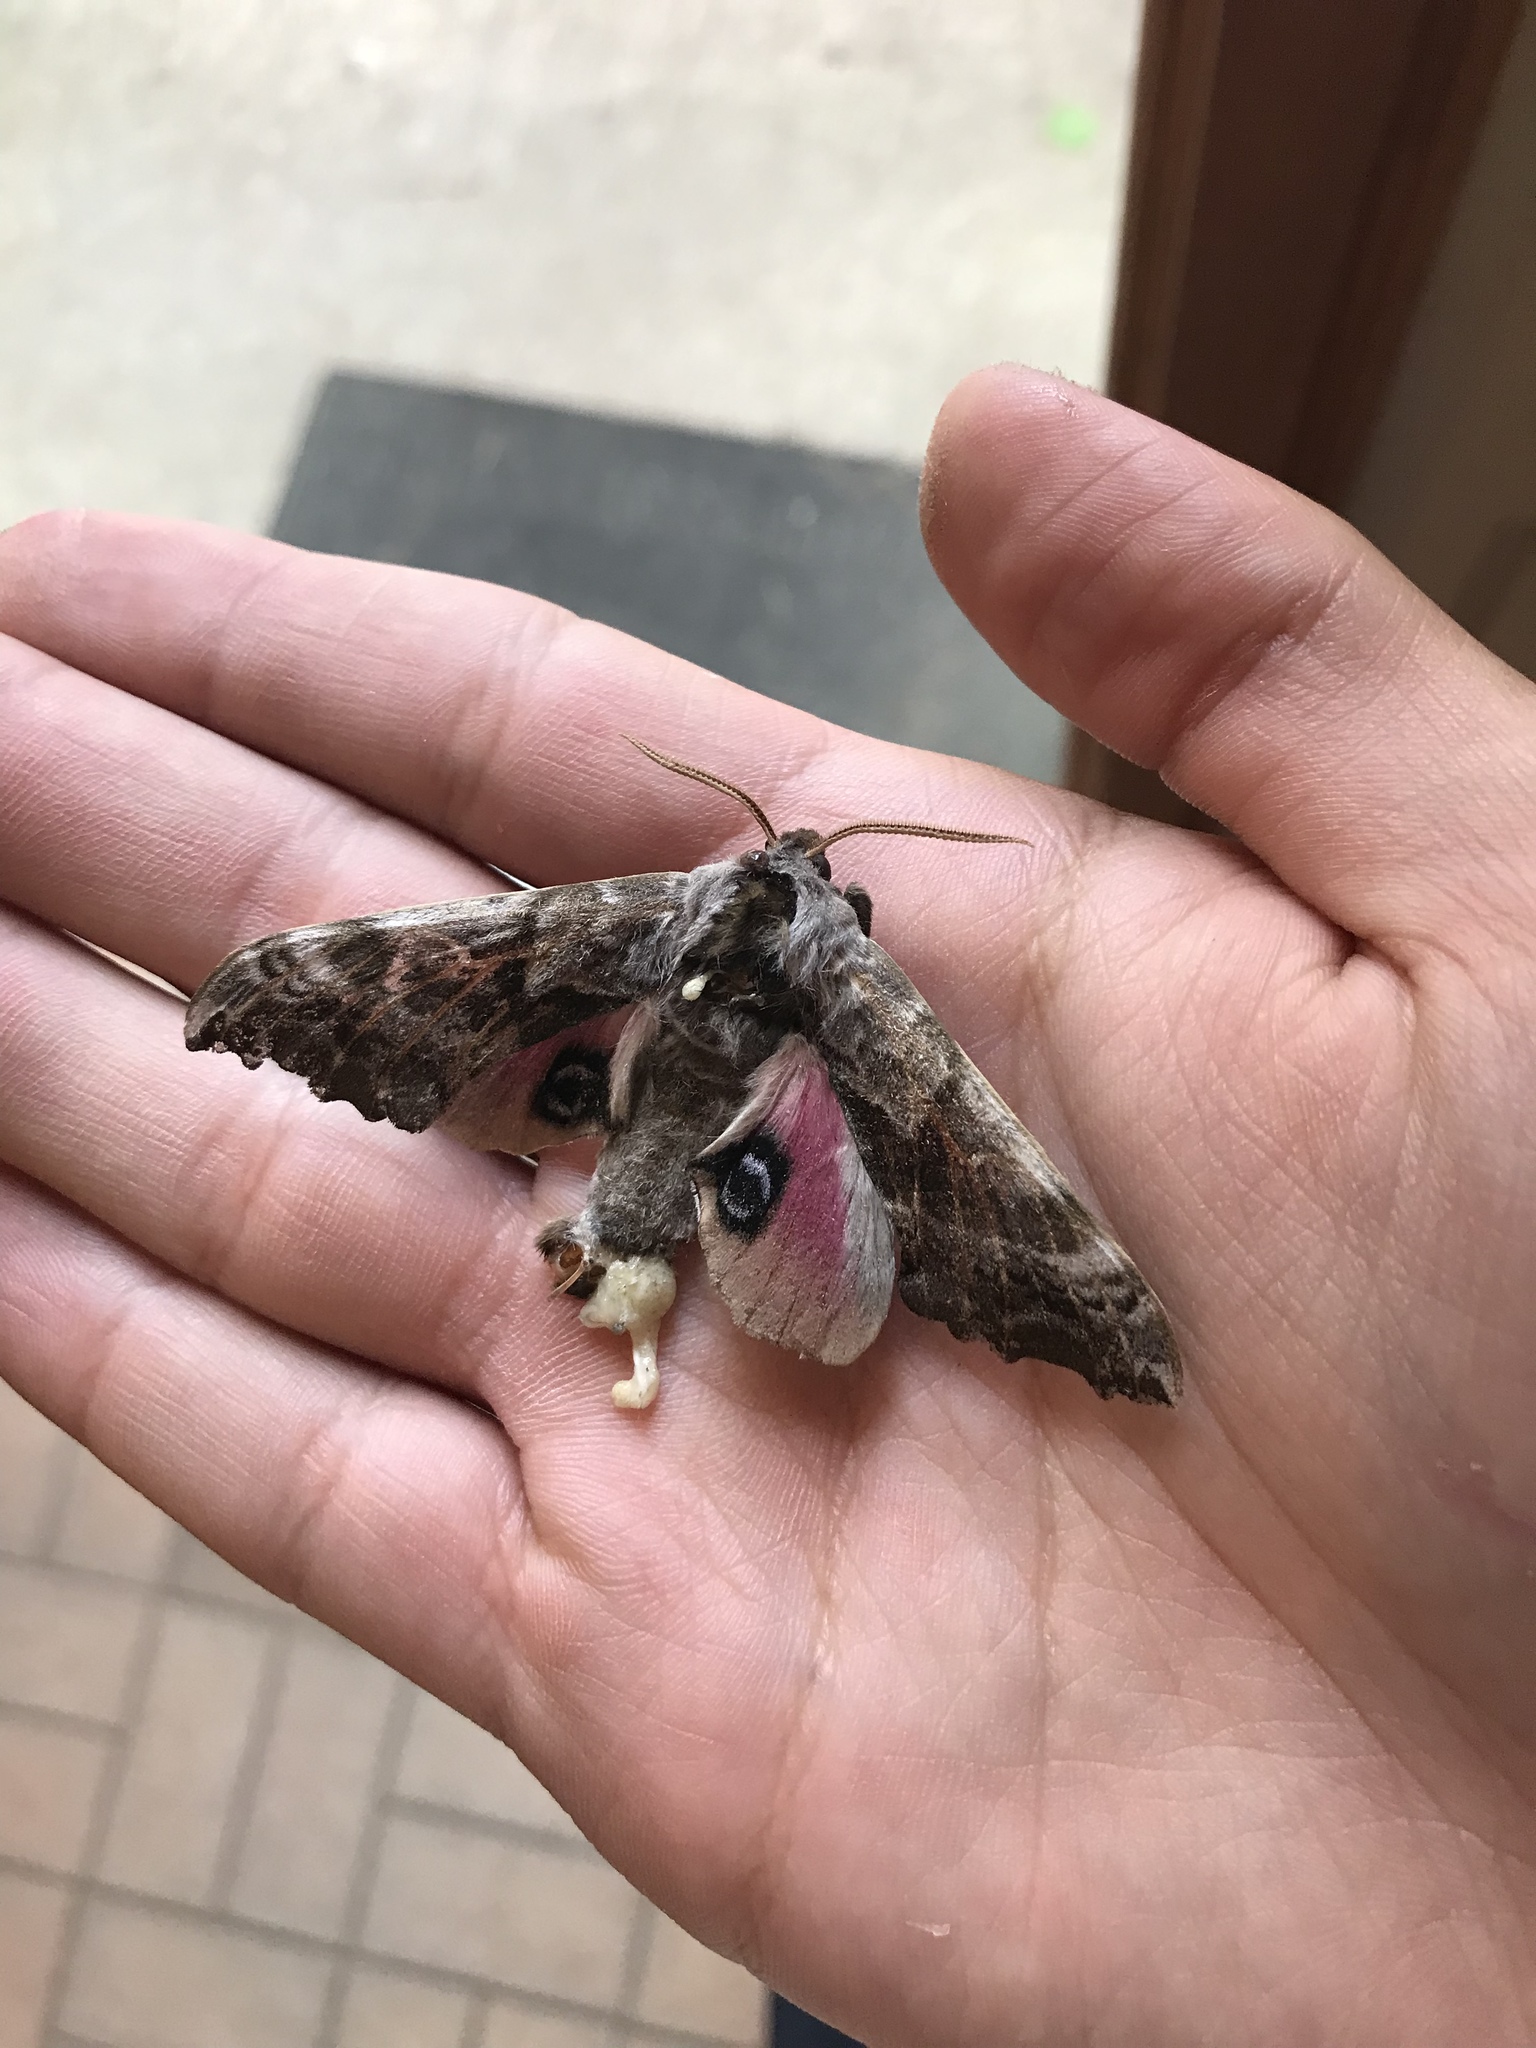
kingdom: Animalia
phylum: Arthropoda
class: Insecta
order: Lepidoptera
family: Sphingidae
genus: Smerinthus
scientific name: Smerinthus cerisyi
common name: Cerisy's sphinx moth
